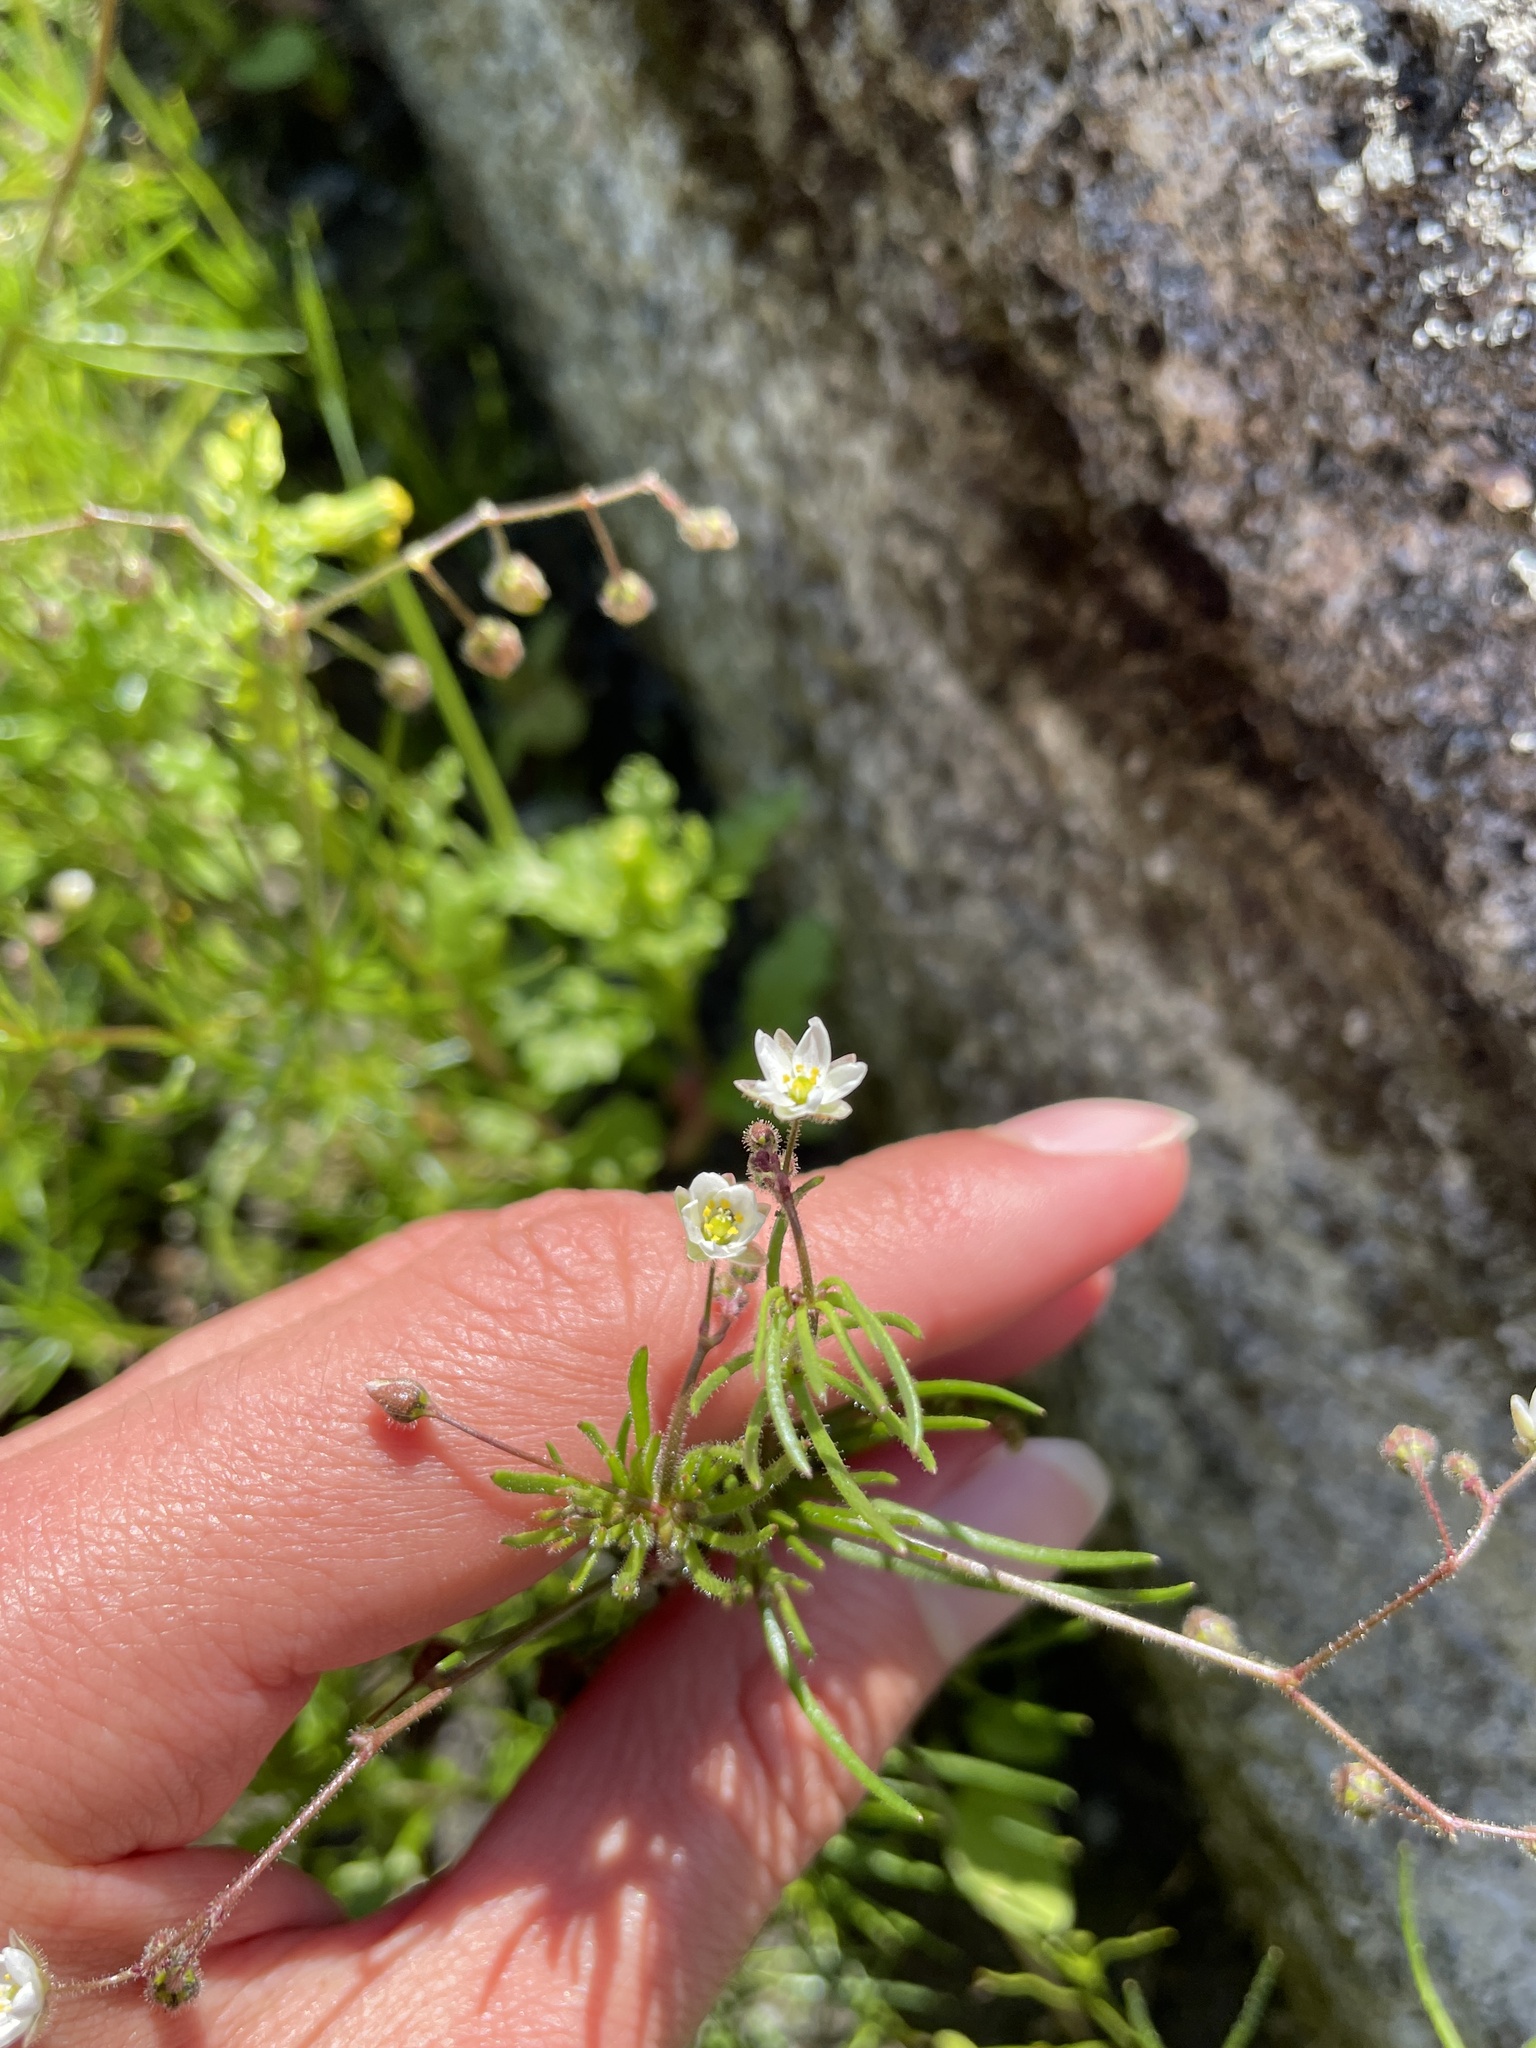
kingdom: Plantae
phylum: Tracheophyta
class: Magnoliopsida
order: Caryophyllales
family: Caryophyllaceae
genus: Spergula
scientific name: Spergula arvensis
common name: Corn spurrey
